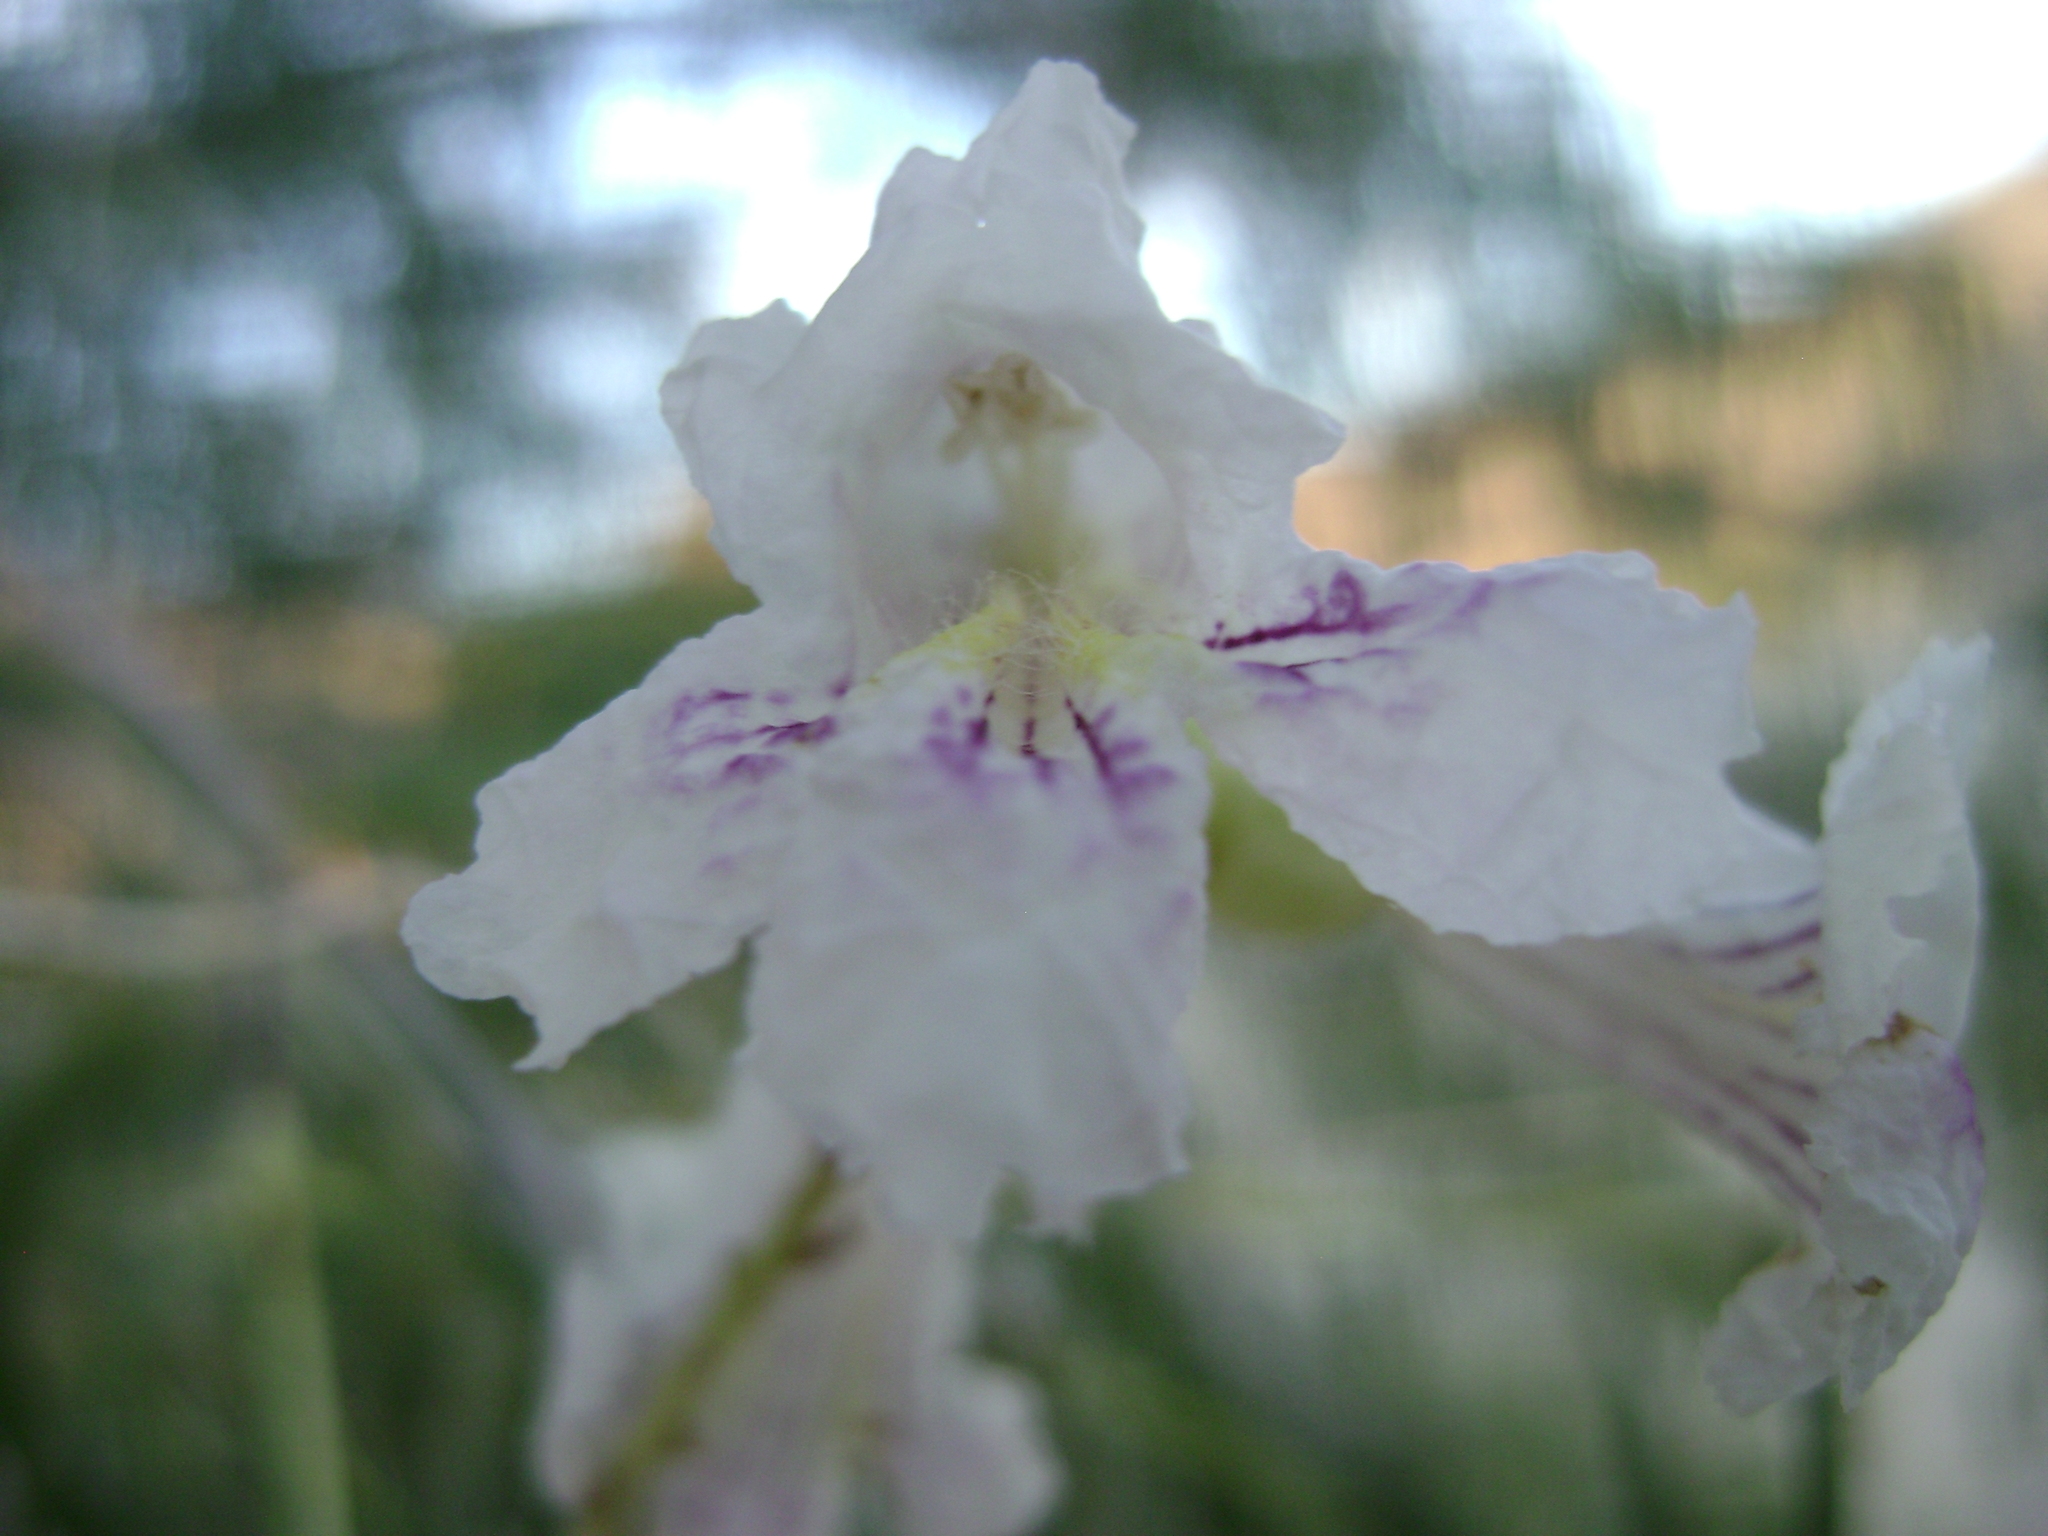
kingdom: Plantae
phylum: Tracheophyta
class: Magnoliopsida
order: Lamiales
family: Bignoniaceae
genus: Chilopsis
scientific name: Chilopsis linearis
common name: Desert-willow
